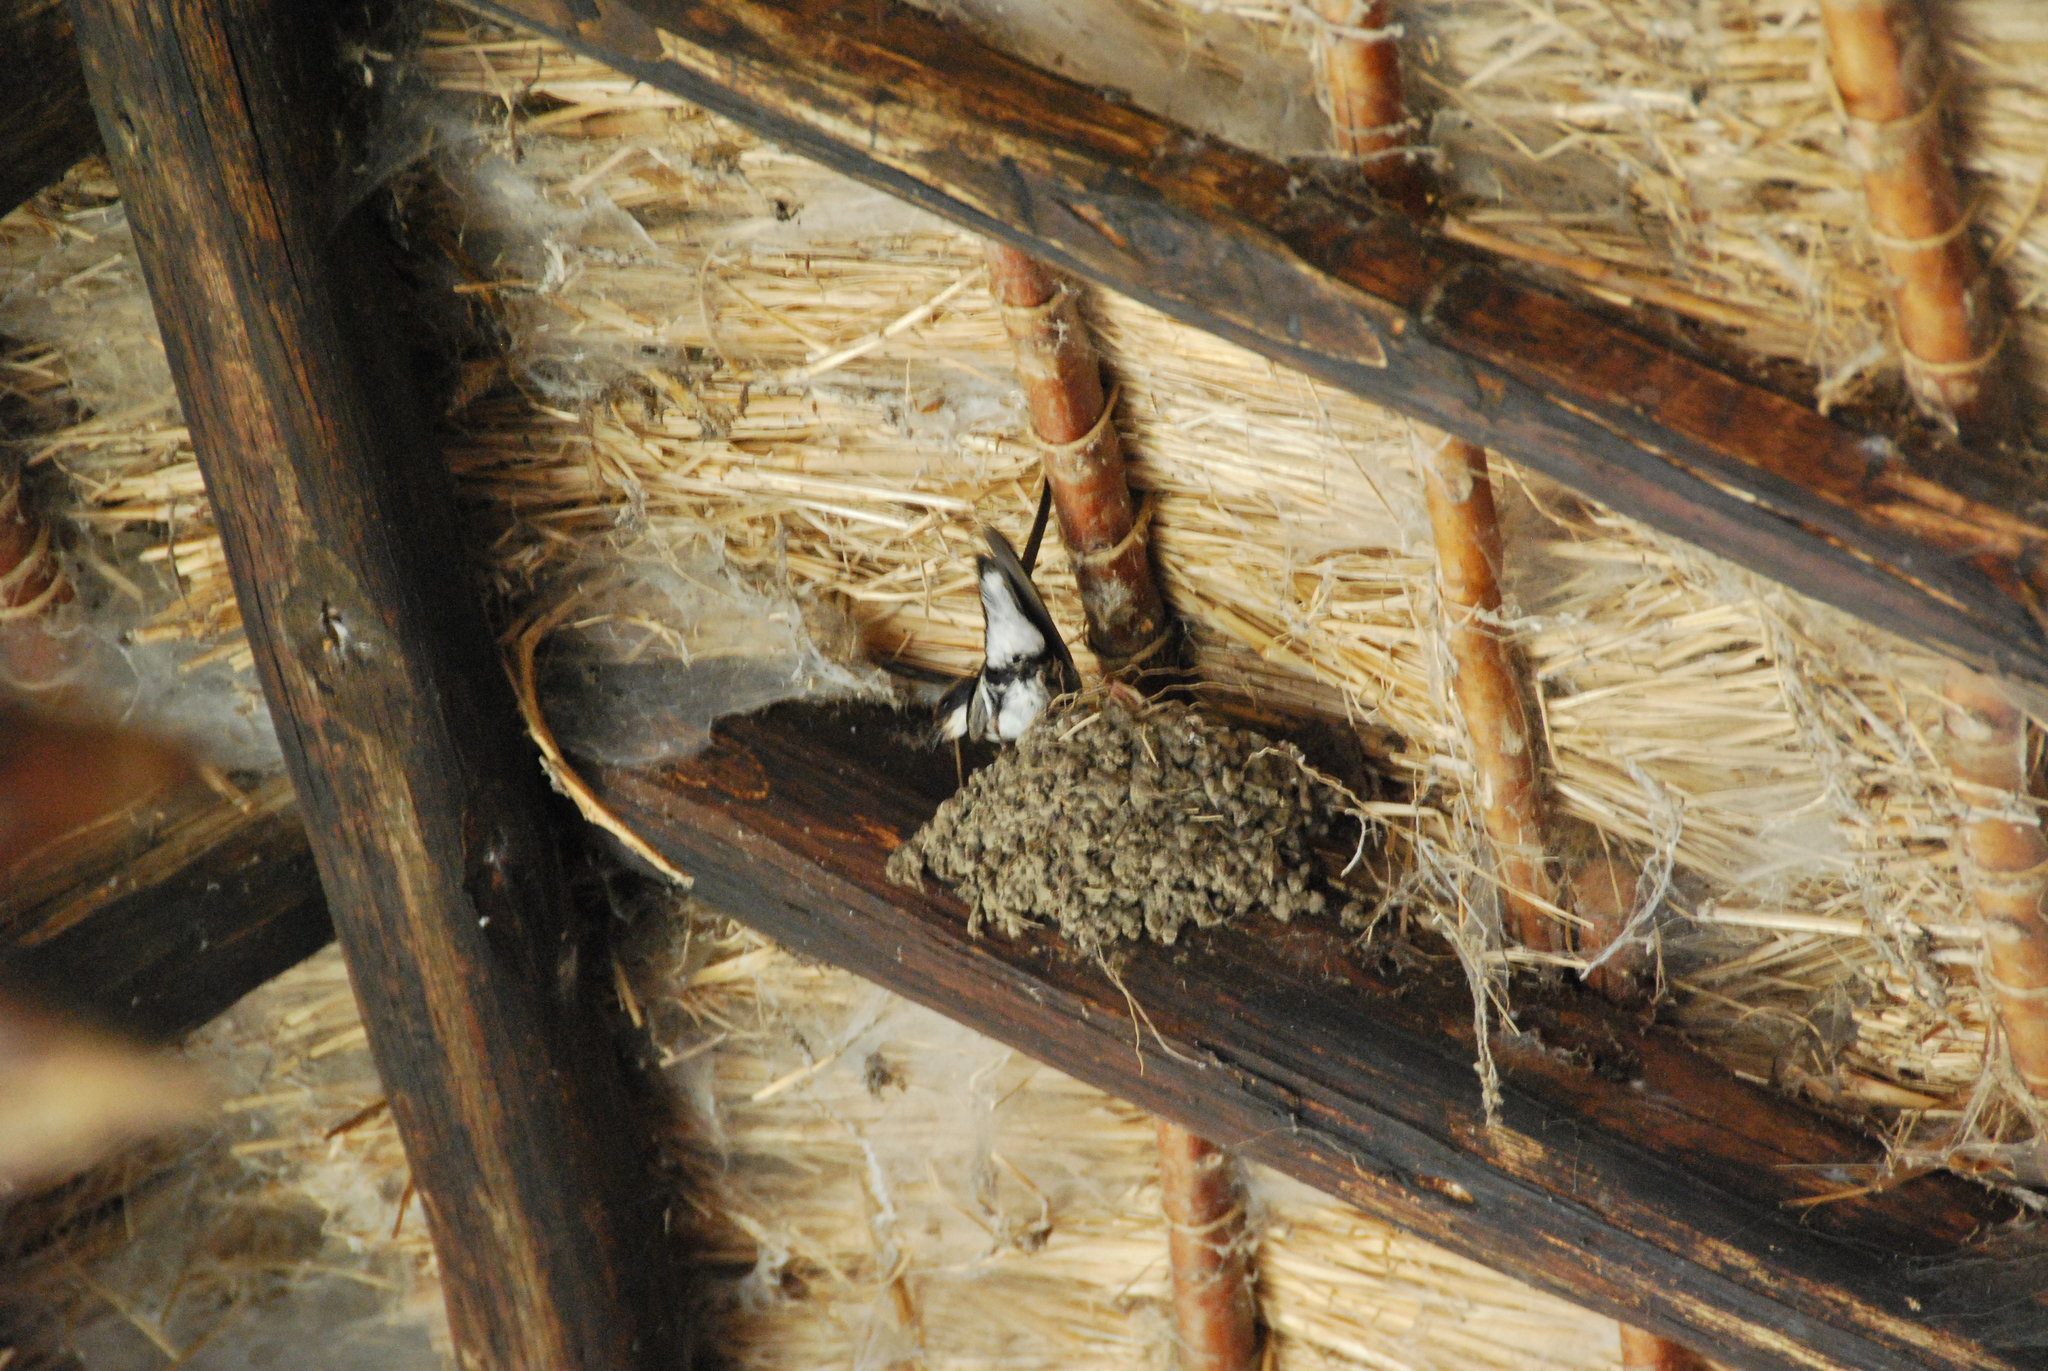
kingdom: Animalia
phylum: Chordata
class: Aves
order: Passeriformes
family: Hirundinidae
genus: Hirundo
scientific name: Hirundo smithii
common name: Wire-tailed swallow
